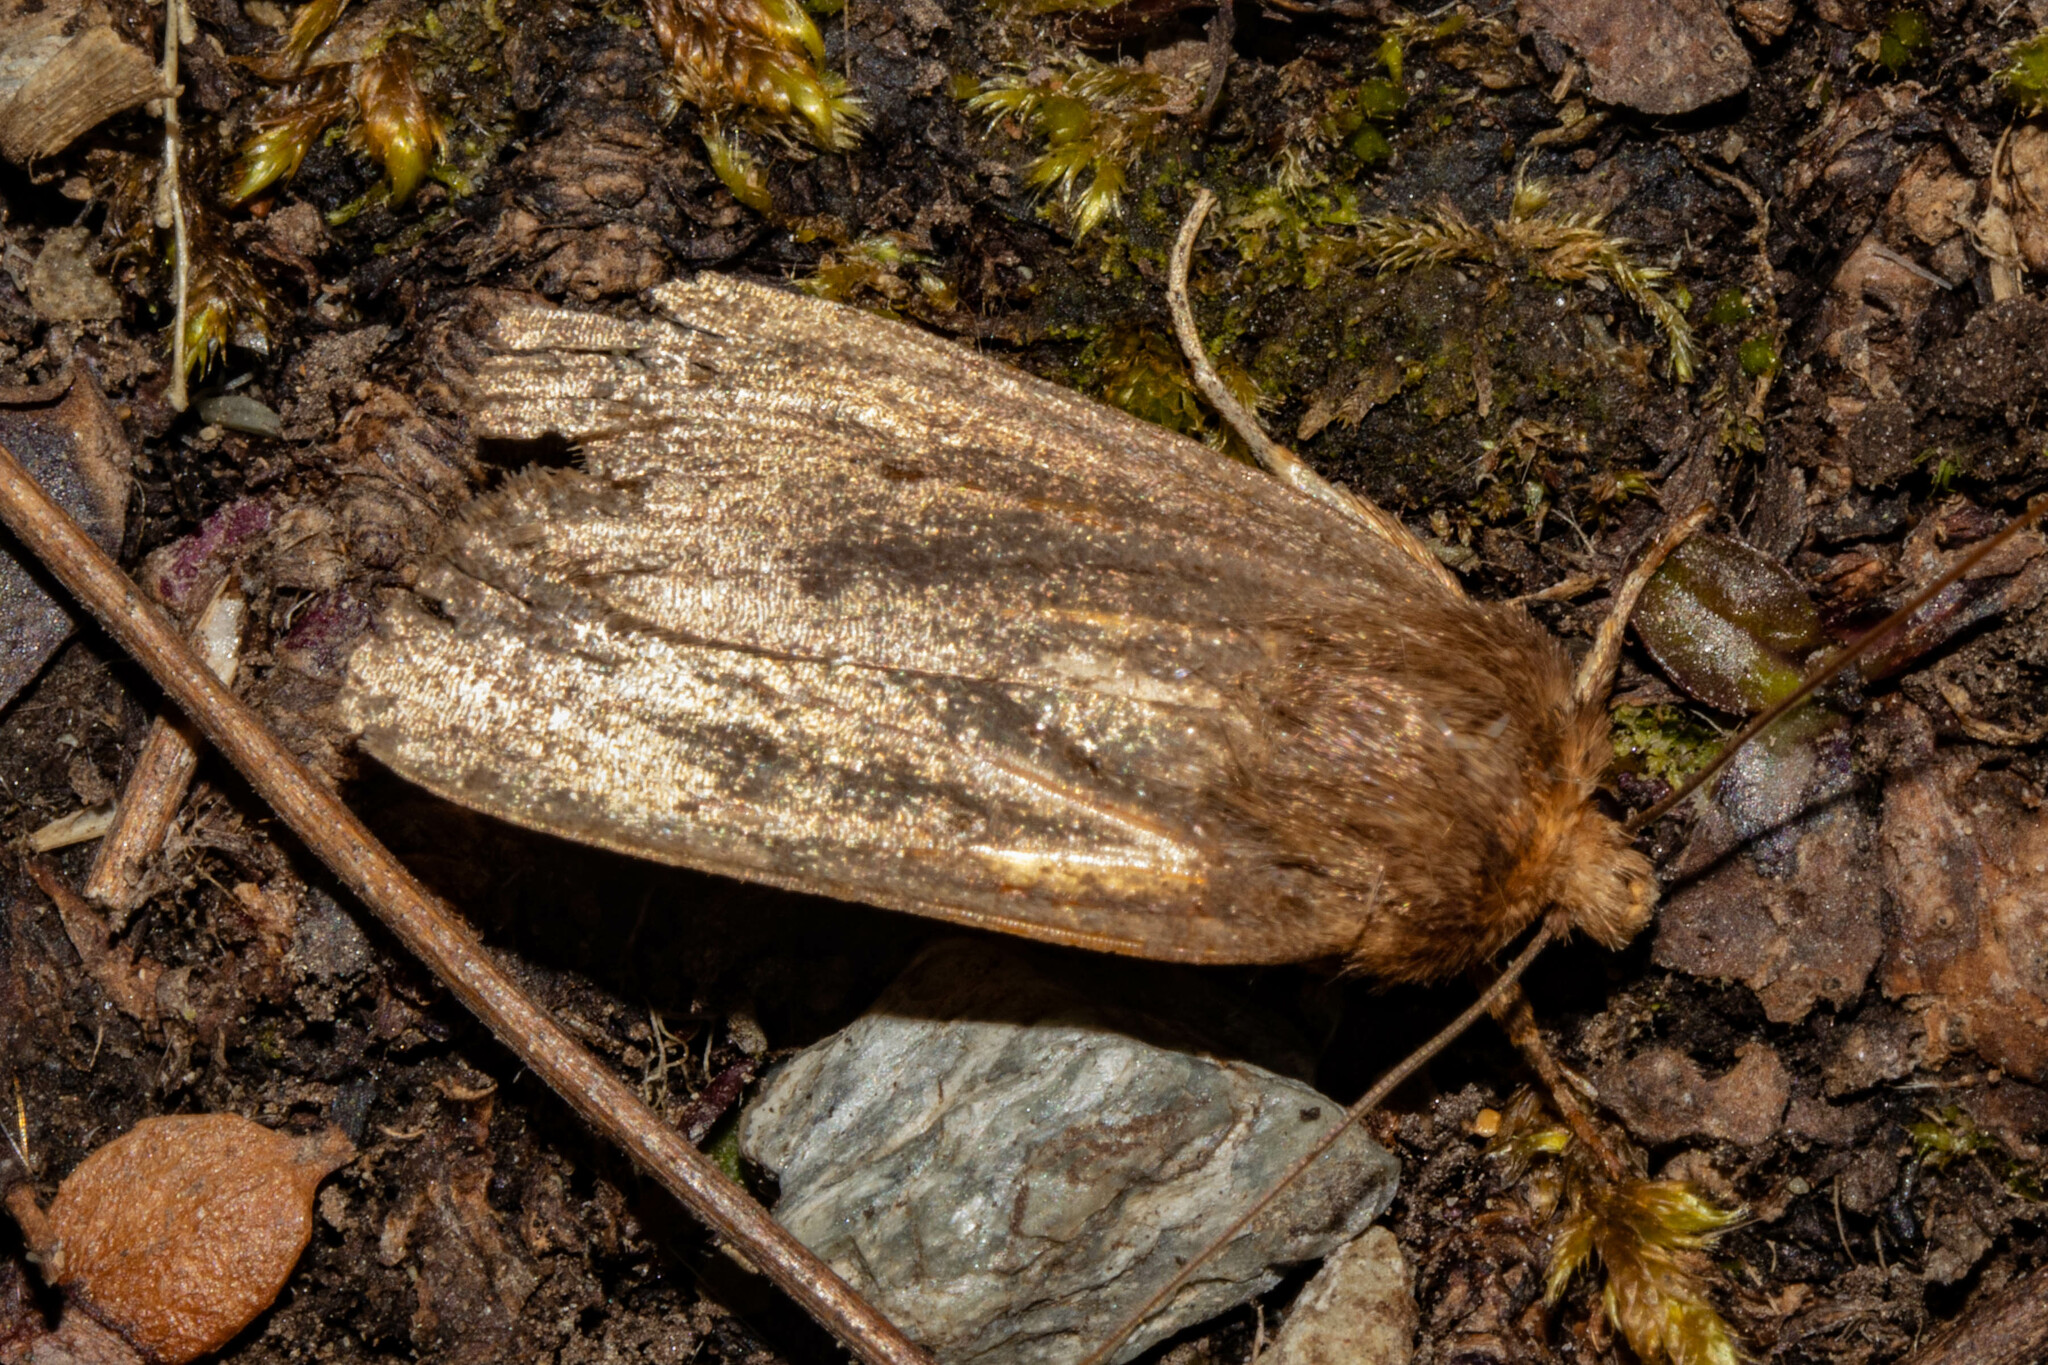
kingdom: Animalia
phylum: Arthropoda
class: Insecta
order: Lepidoptera
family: Noctuidae
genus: Bityla
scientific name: Bityla defigurata
